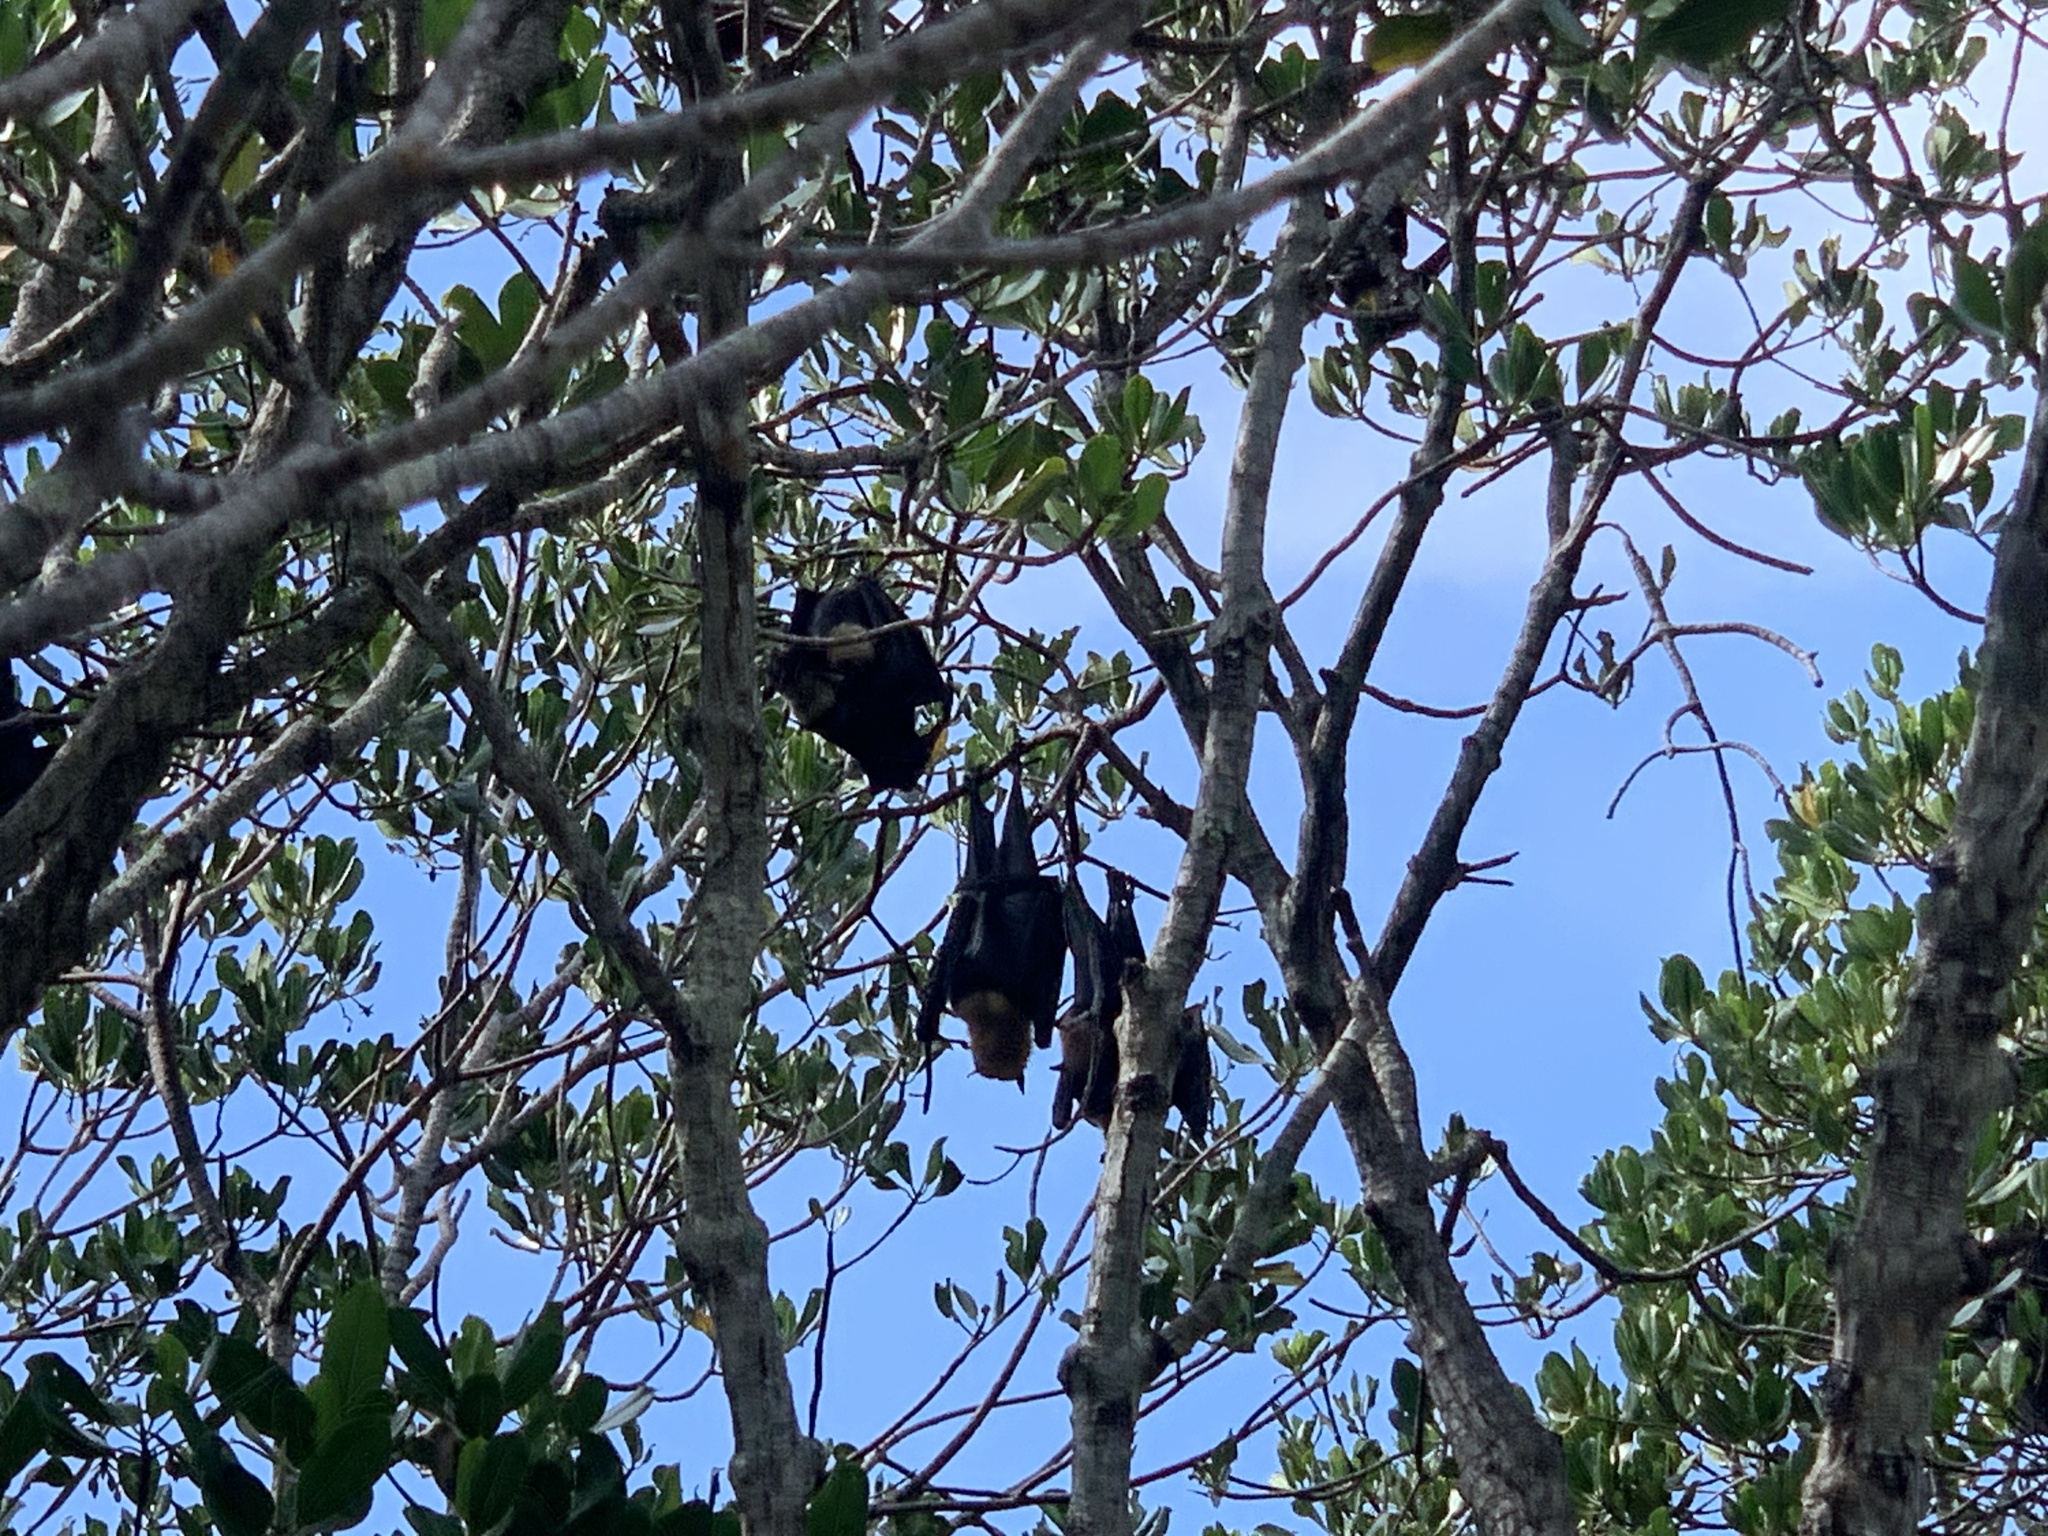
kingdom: Animalia
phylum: Chordata
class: Mammalia
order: Chiroptera
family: Pteropodidae
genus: Pteropus
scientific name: Pteropus conspicillatus
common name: Spectacled flying fox
